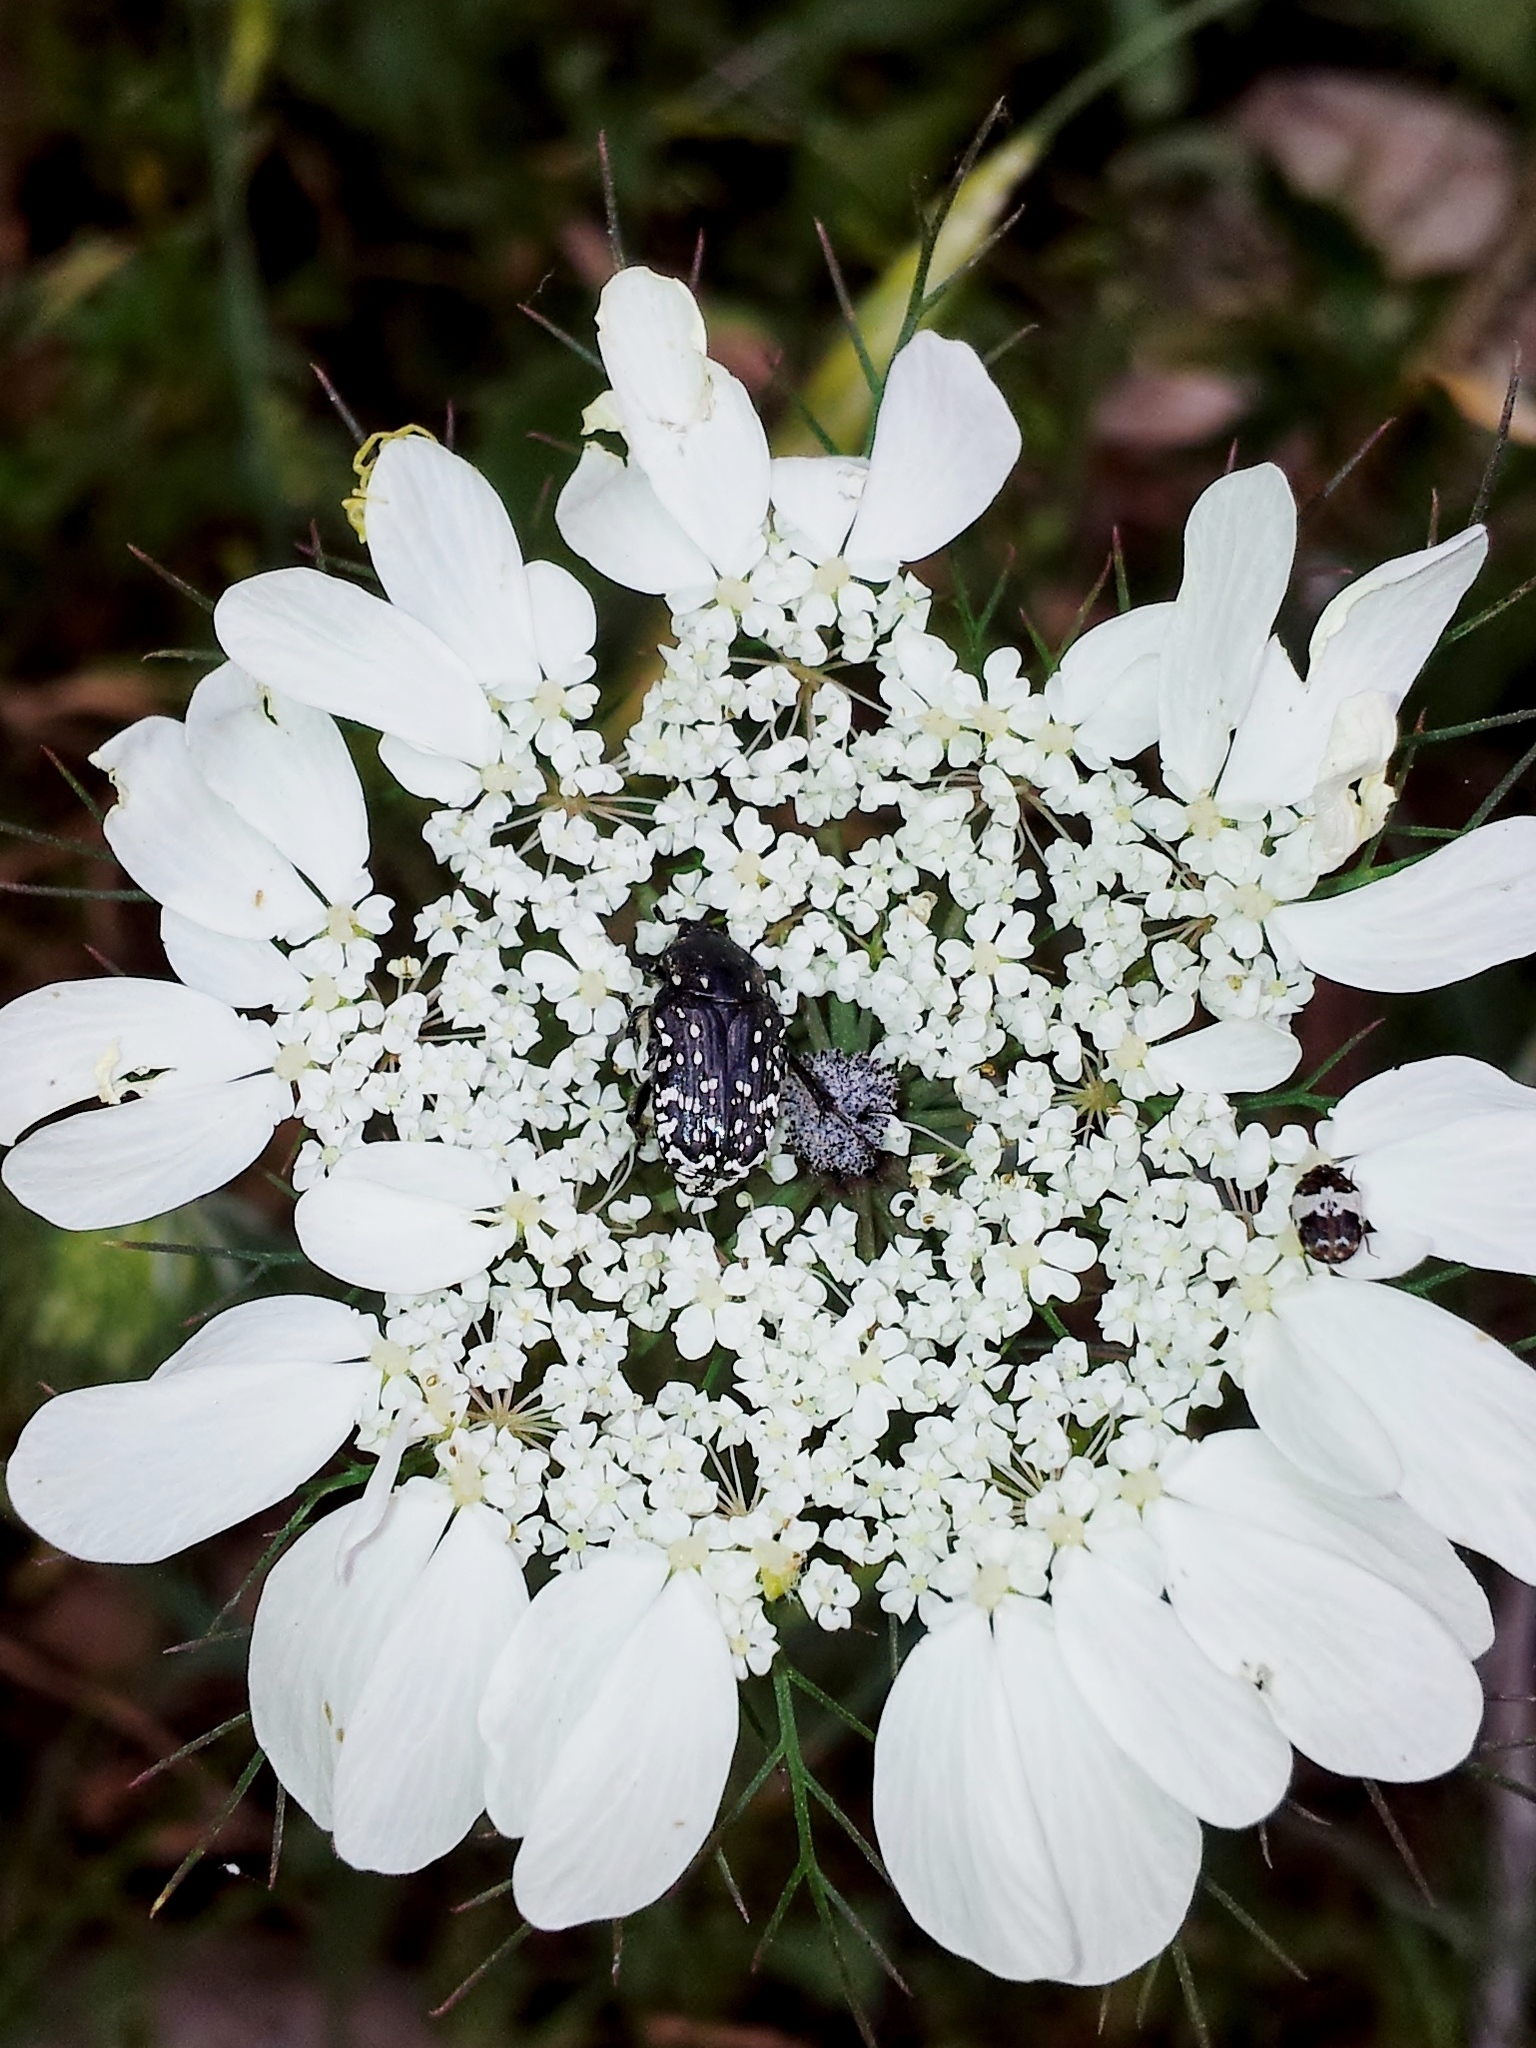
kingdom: Plantae
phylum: Tracheophyta
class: Magnoliopsida
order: Apiales
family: Apiaceae
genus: Artedia
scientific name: Artedia squamata
